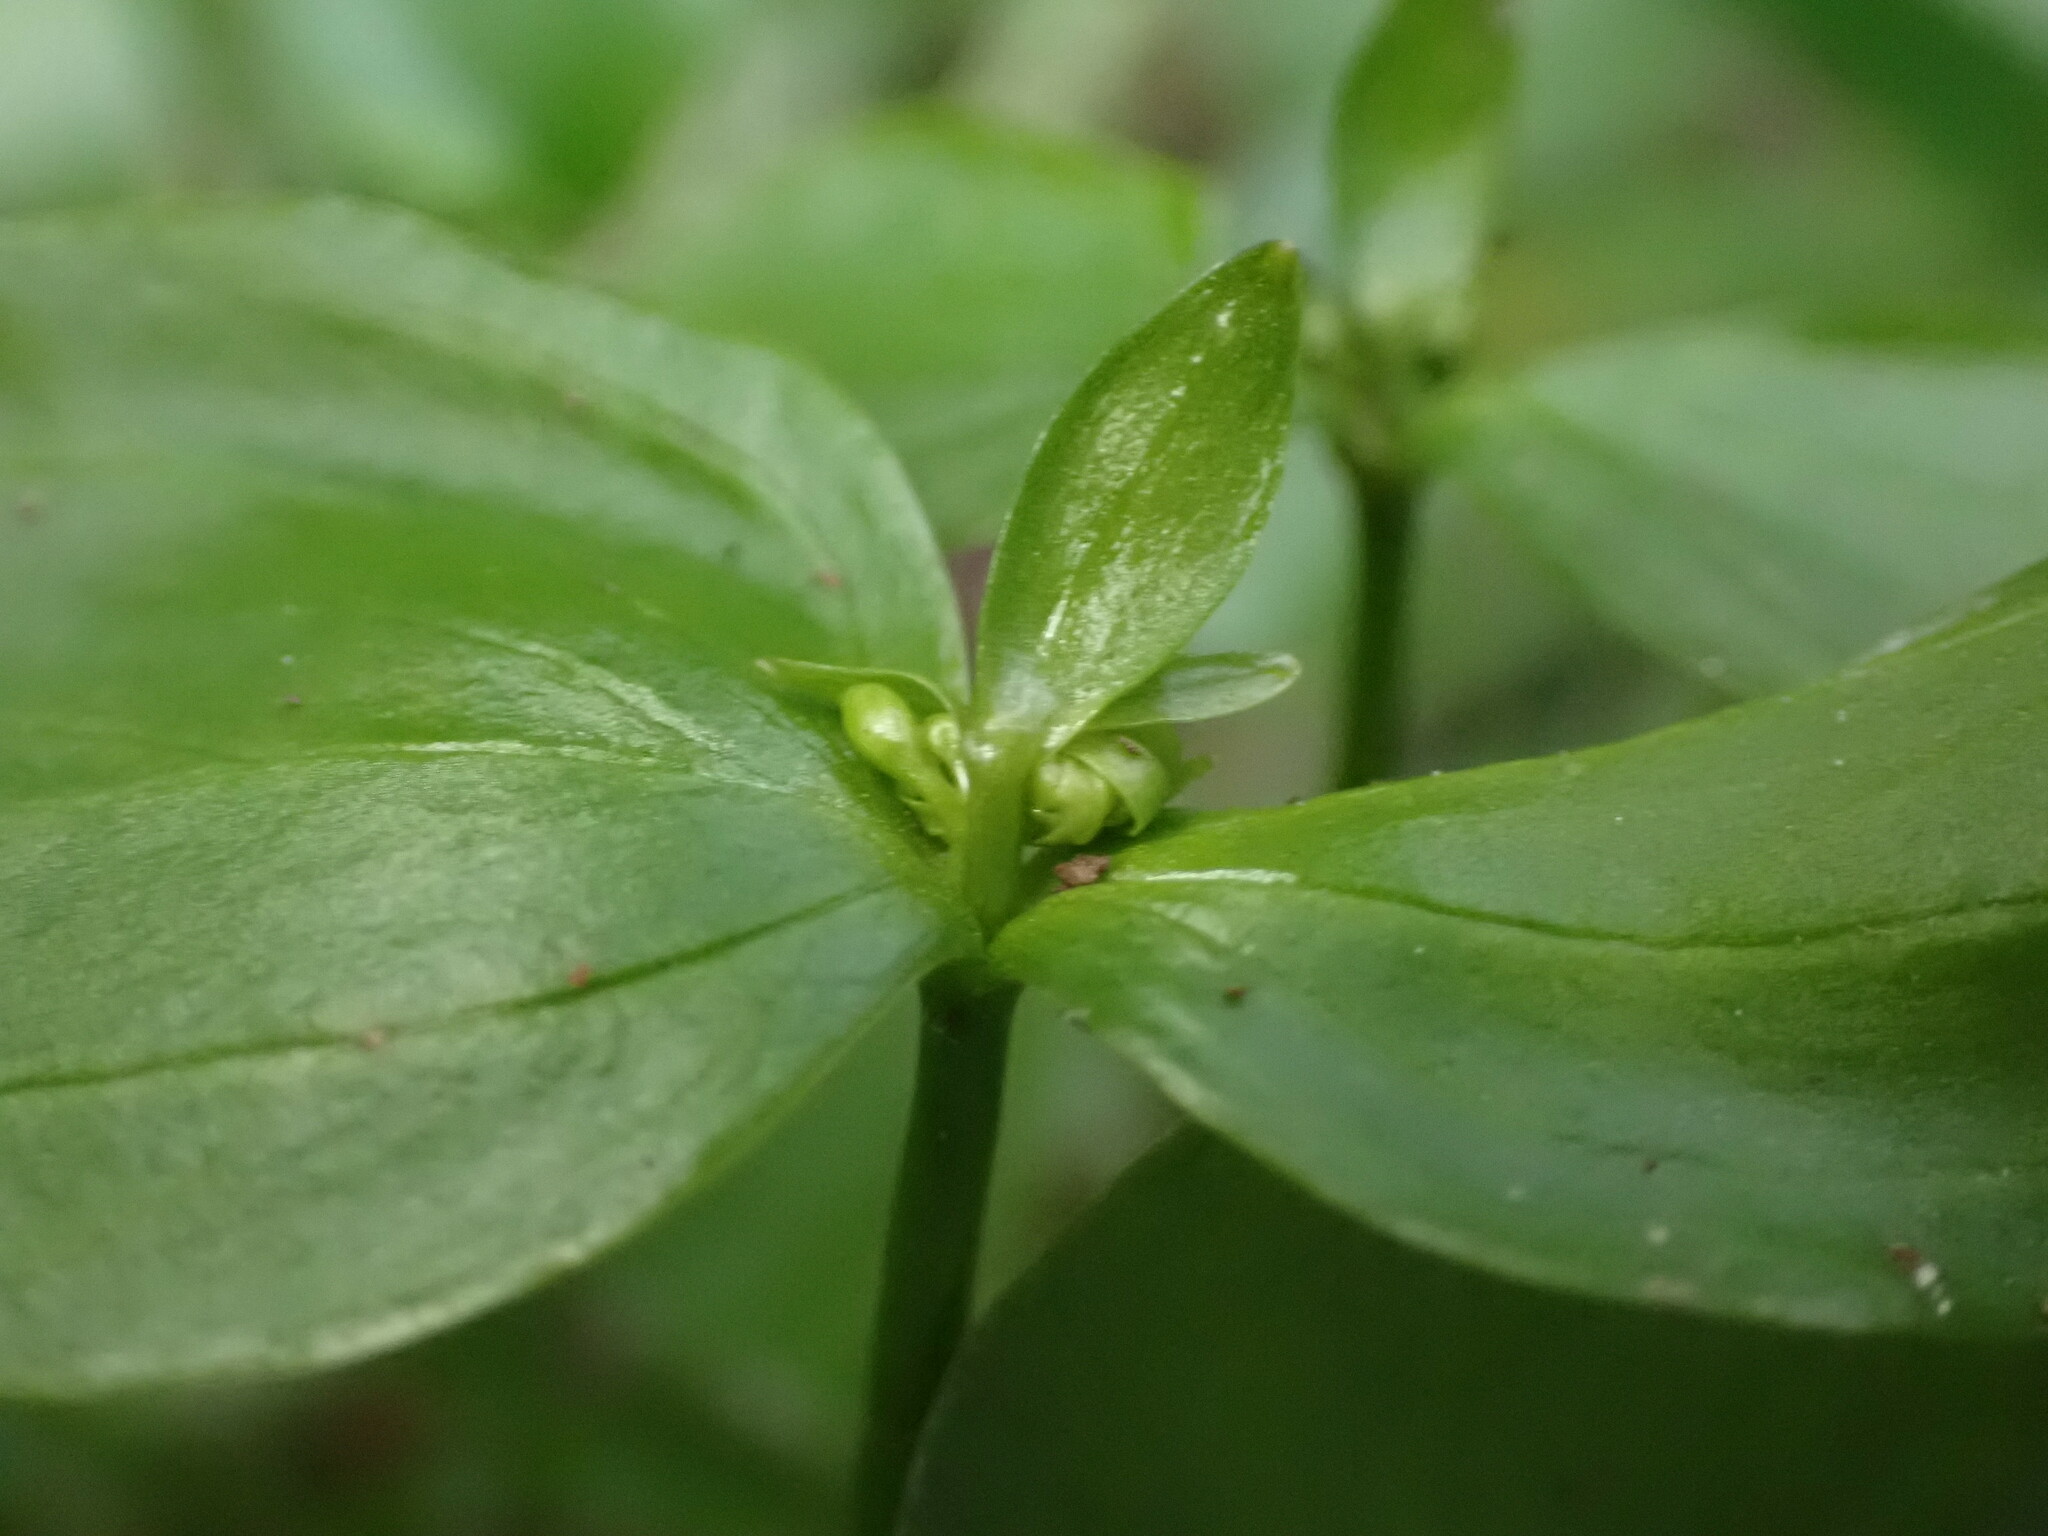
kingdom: Plantae
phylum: Tracheophyta
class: Magnoliopsida
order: Caryophyllales
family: Montiaceae
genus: Claytonia
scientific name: Claytonia sibirica
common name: Pink purslane
